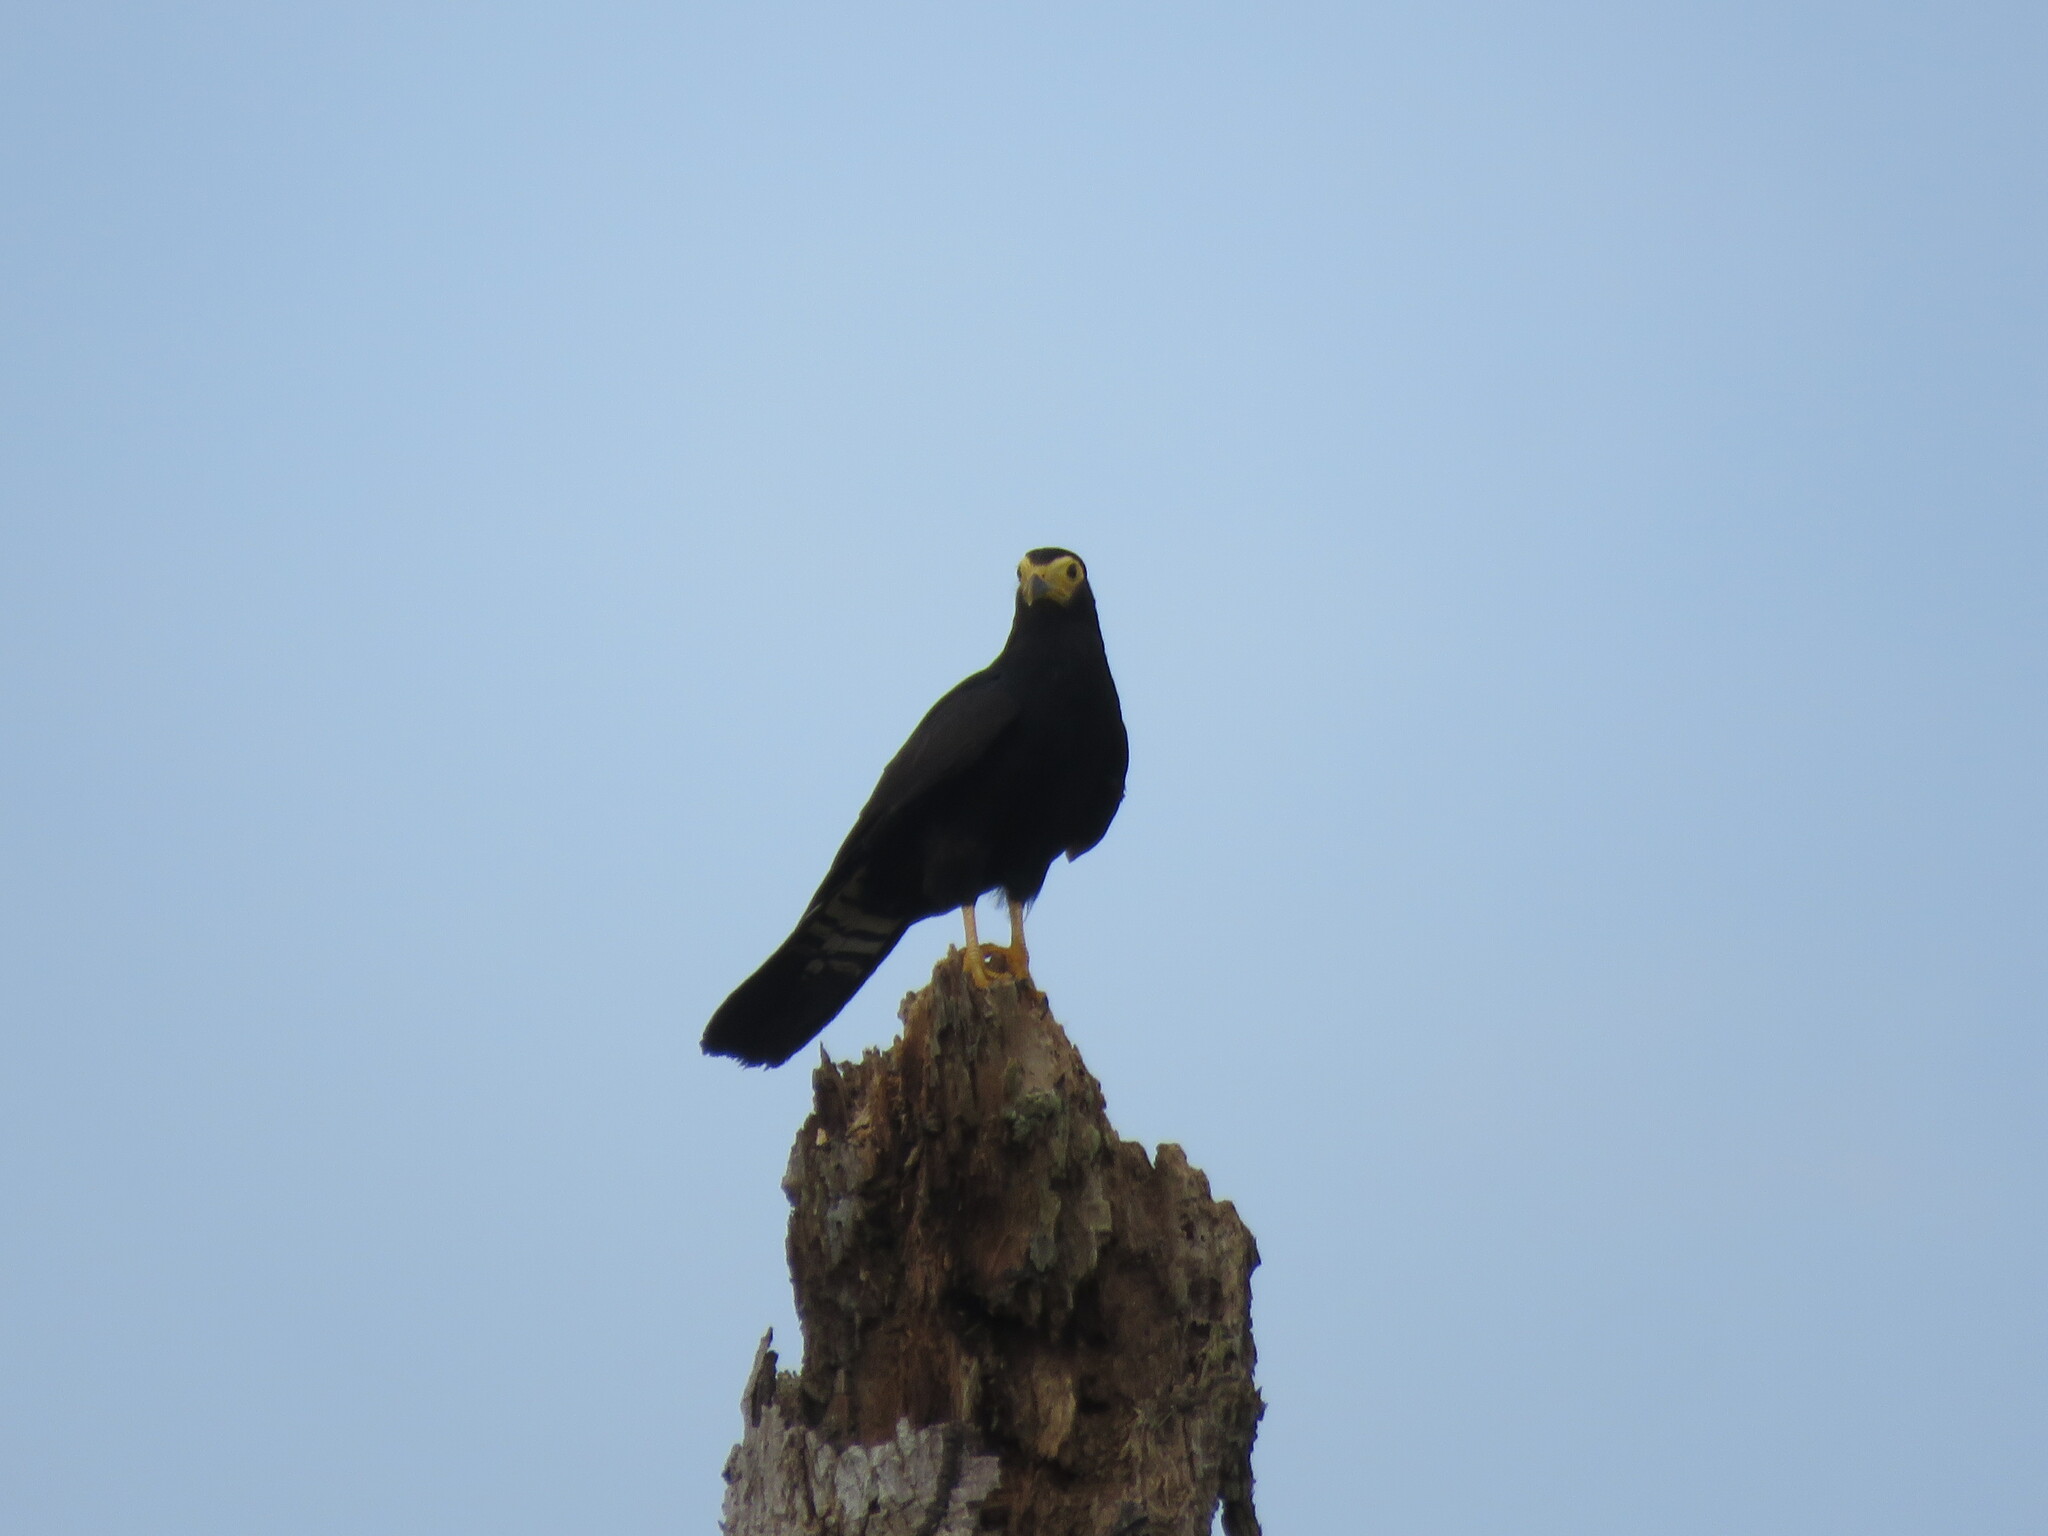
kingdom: Animalia
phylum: Chordata
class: Aves
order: Falconiformes
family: Falconidae
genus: Daptrius
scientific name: Daptrius ater
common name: Black caracara
